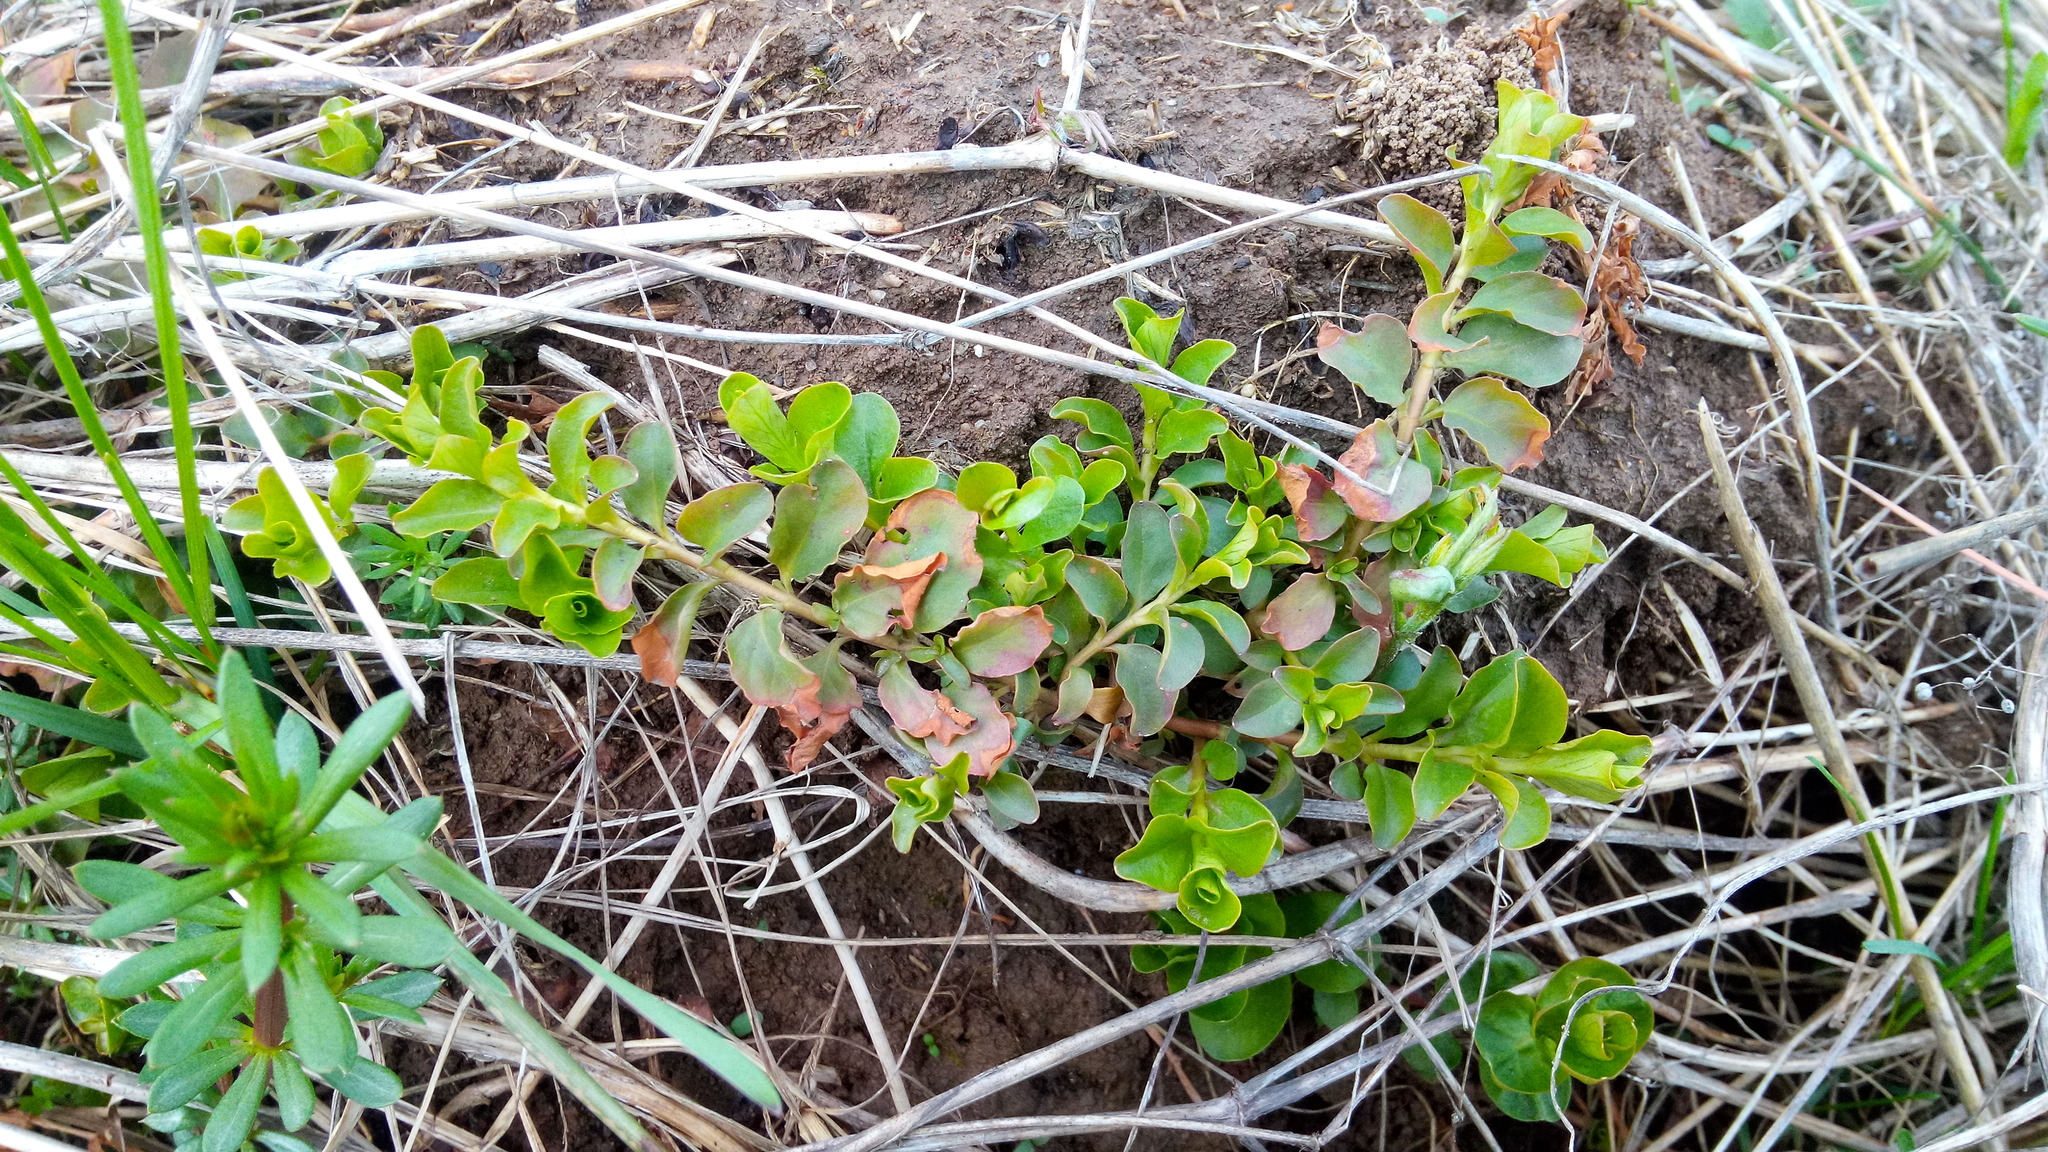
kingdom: Plantae
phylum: Tracheophyta
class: Magnoliopsida
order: Ericales
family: Primulaceae
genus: Lysimachia
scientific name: Lysimachia nummularia
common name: Moneywort
